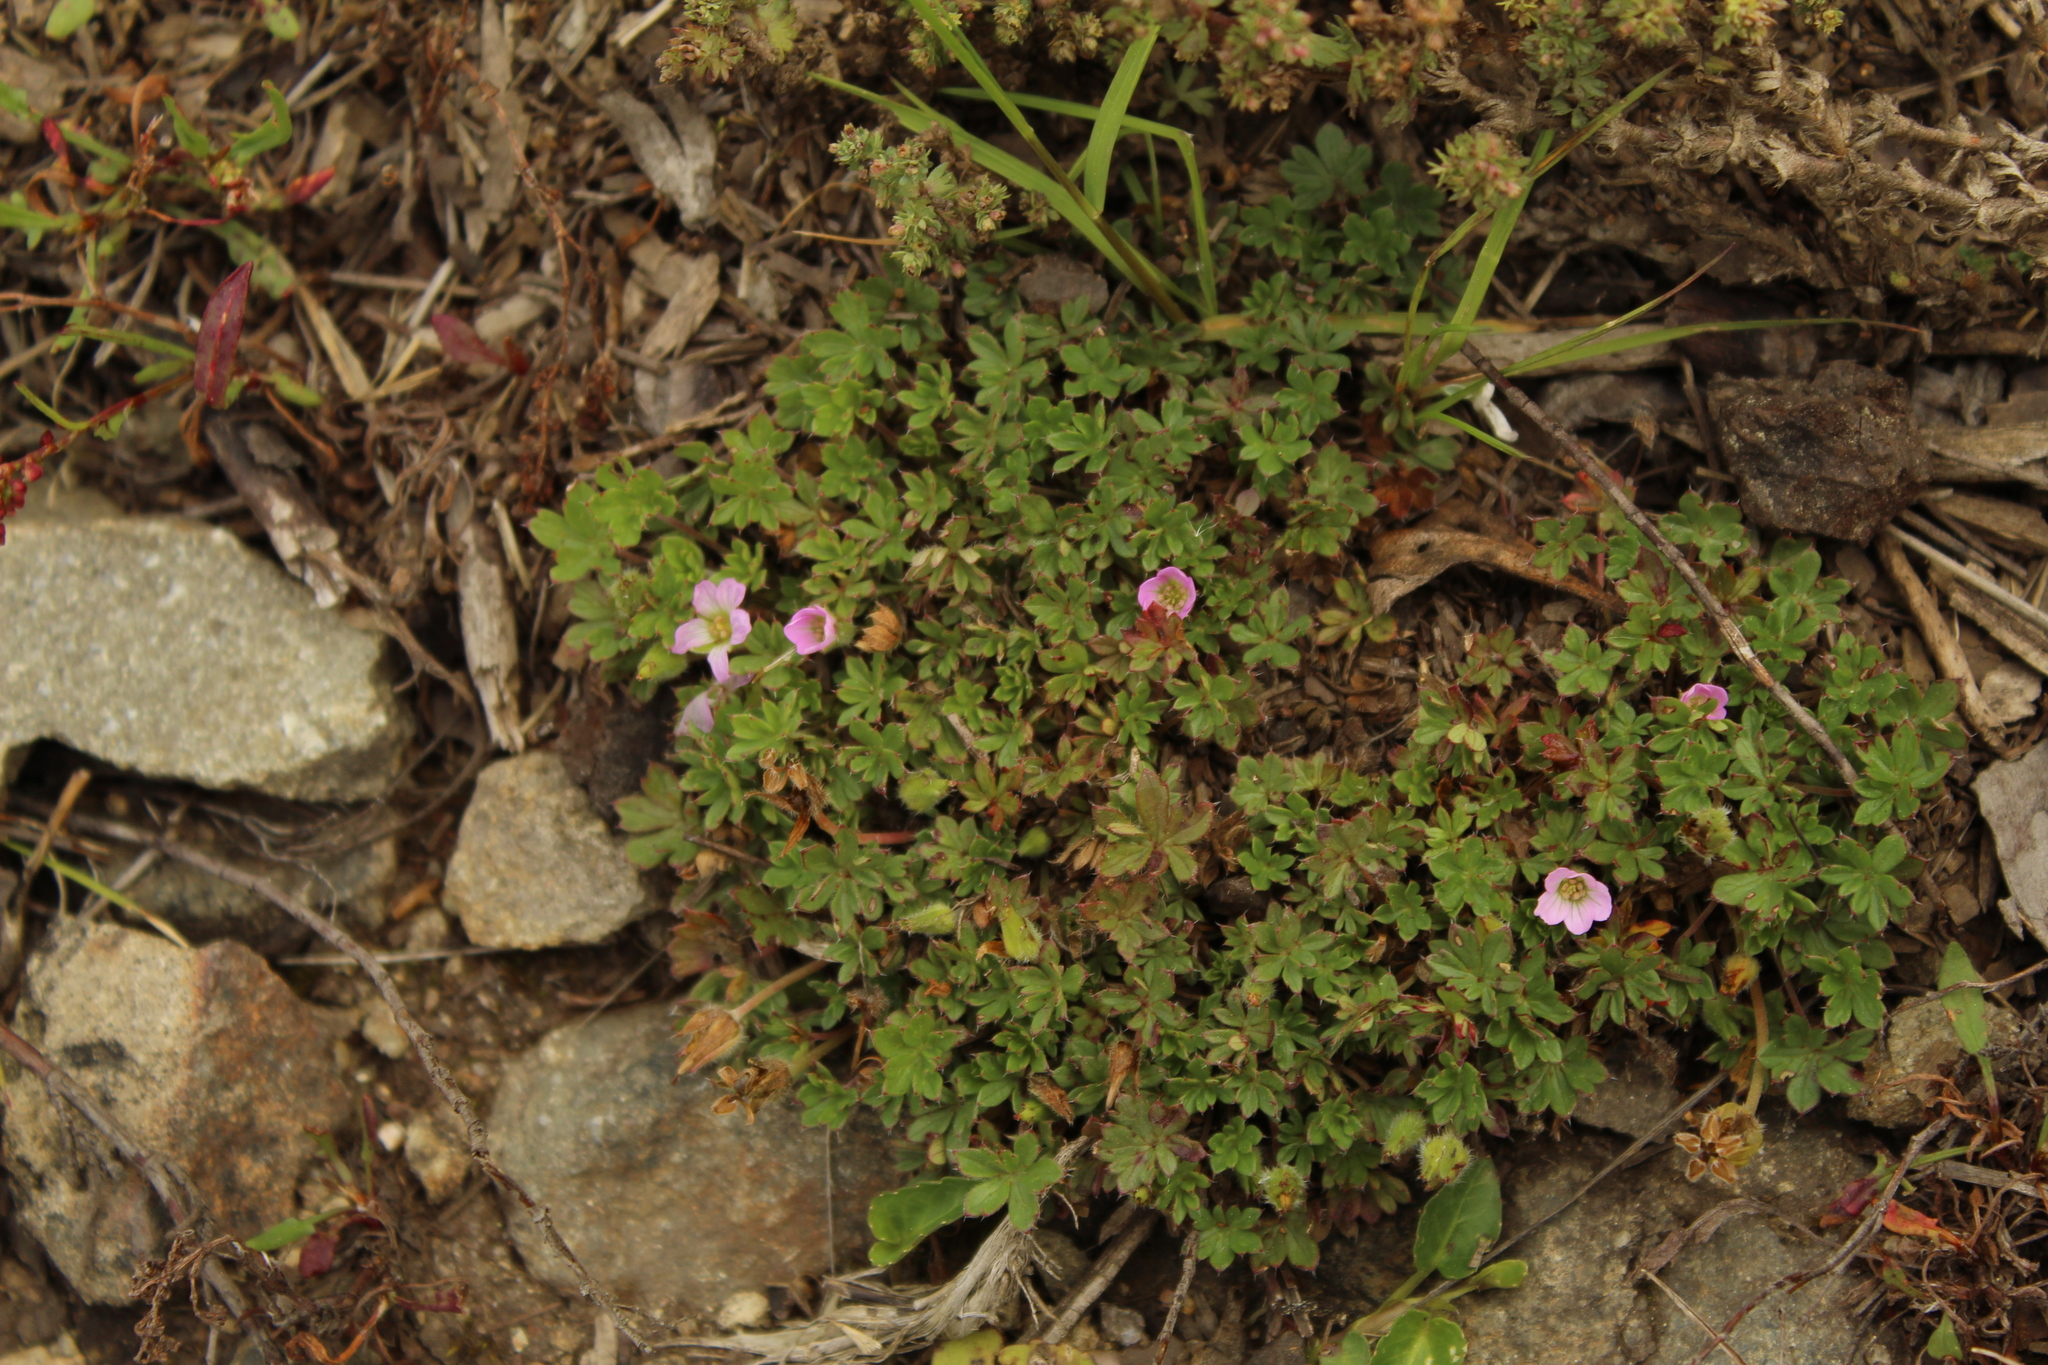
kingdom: Plantae
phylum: Tracheophyta
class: Magnoliopsida
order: Geraniales
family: Geraniaceae
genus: Geranium
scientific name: Geranium sibbaldioides
